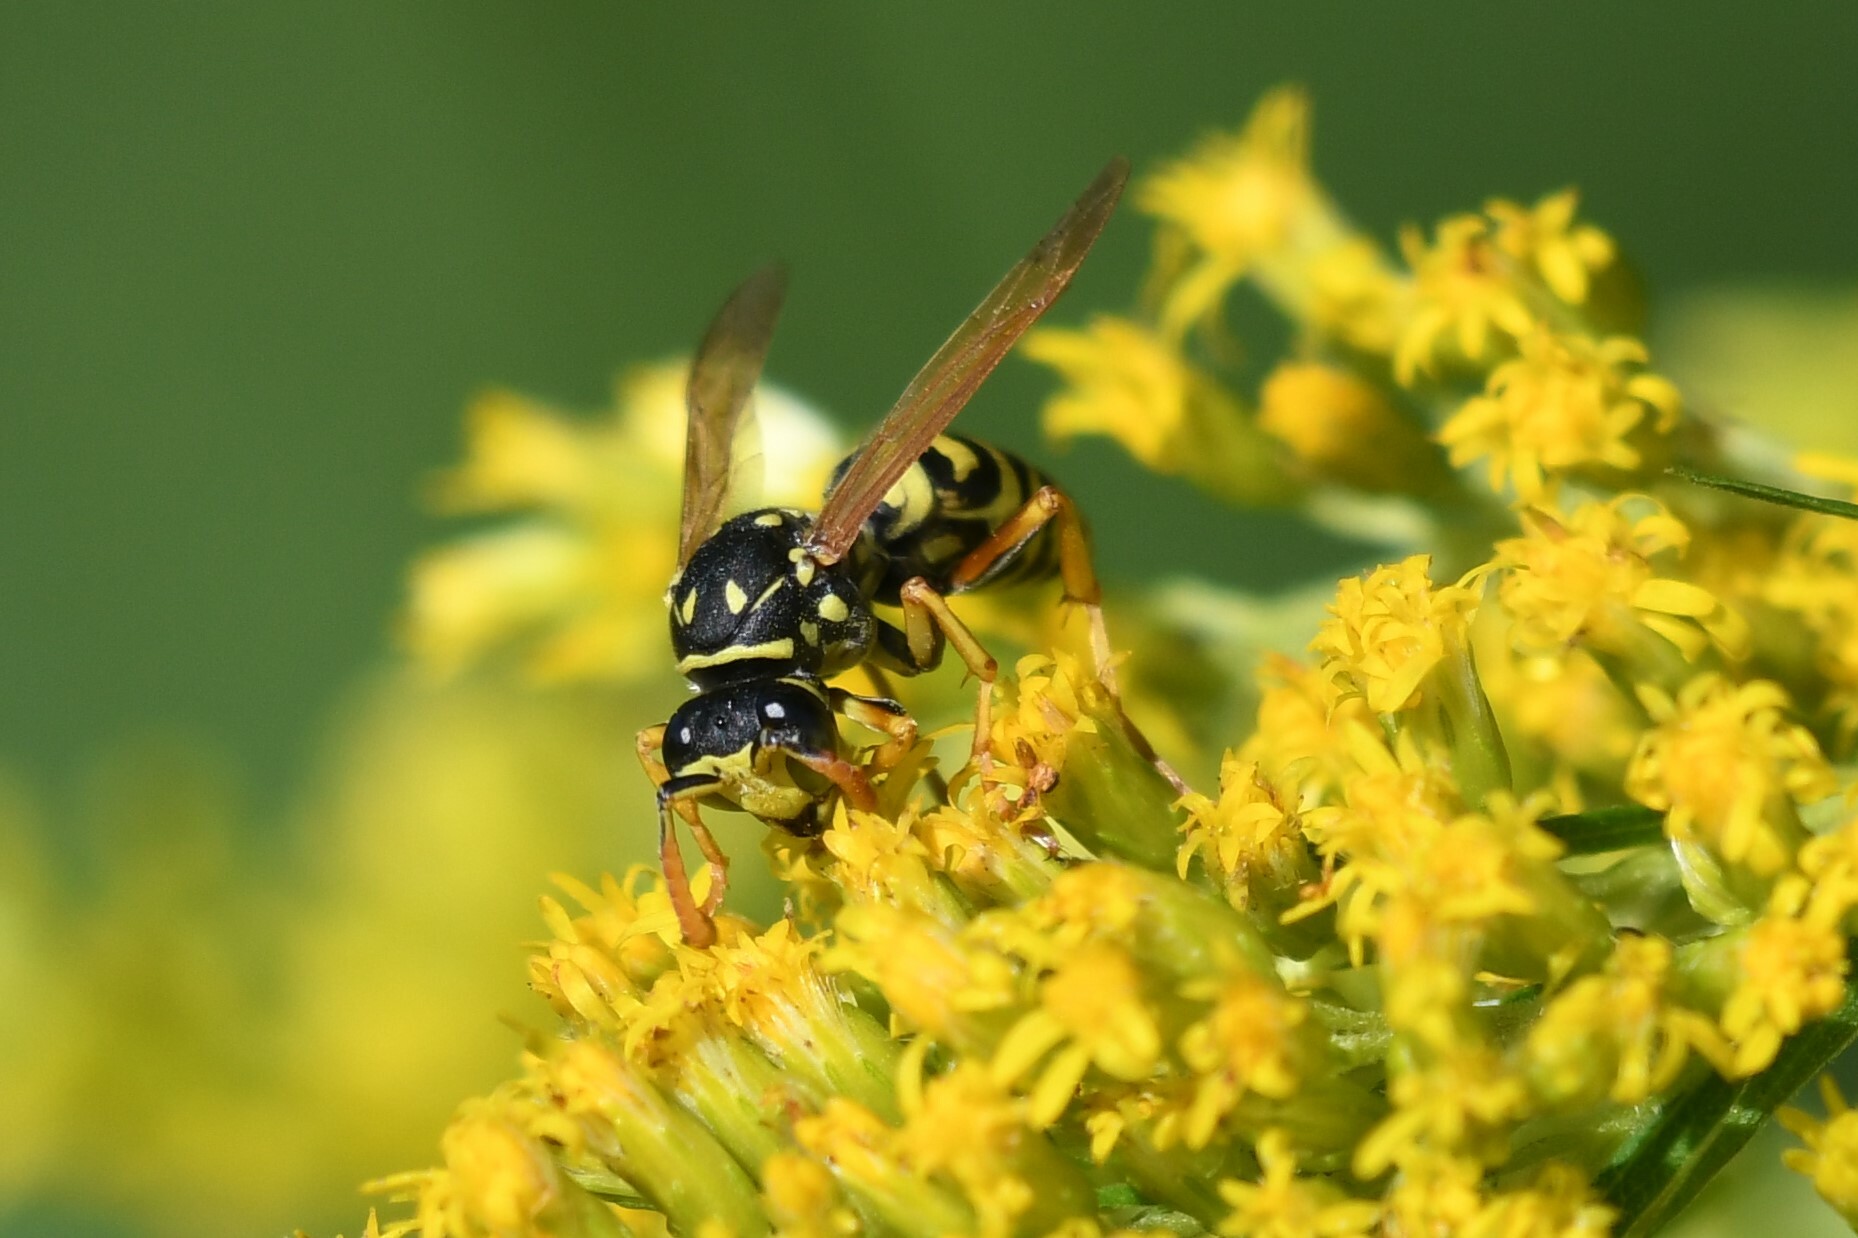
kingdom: Animalia
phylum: Arthropoda
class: Insecta
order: Hymenoptera
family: Eumenidae
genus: Polistes
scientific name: Polistes dominula
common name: Paper wasp
